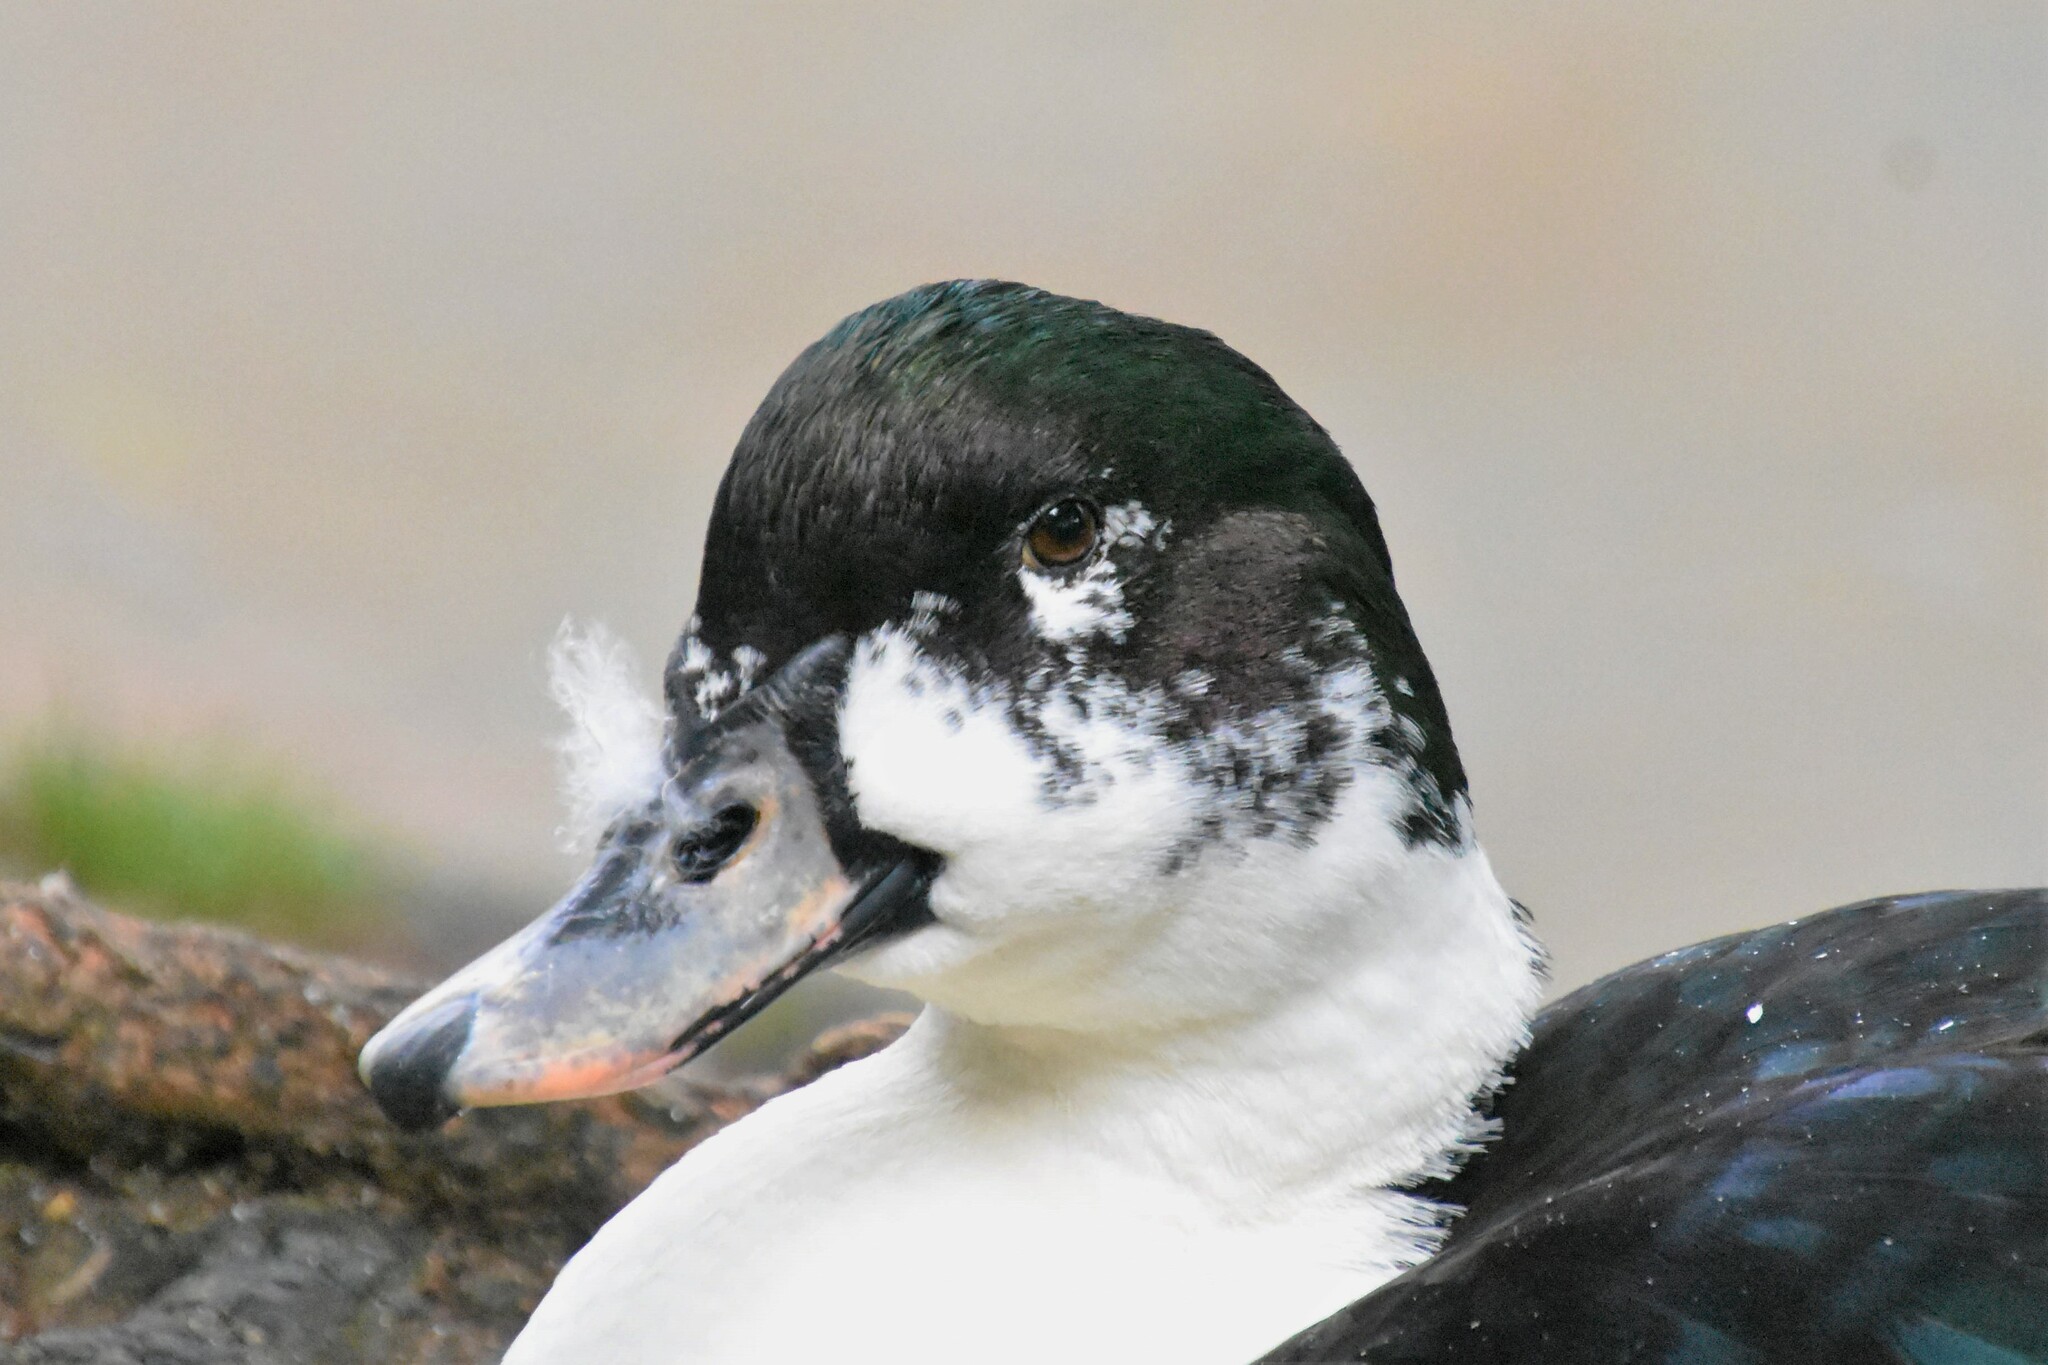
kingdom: Animalia
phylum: Chordata
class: Aves
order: Anseriformes
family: Anatidae
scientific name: Anatidae
